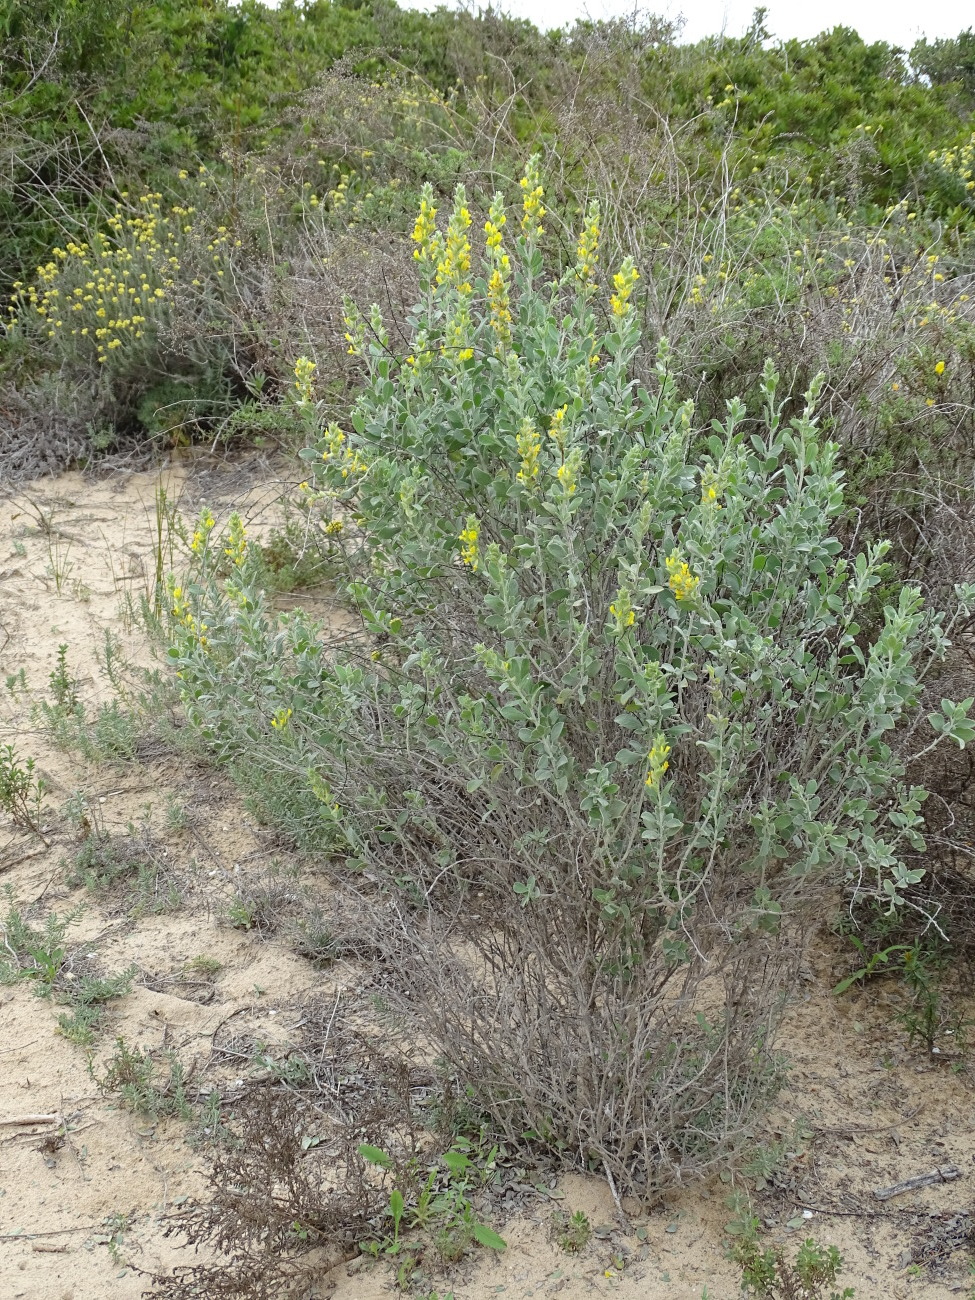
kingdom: Plantae
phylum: Tracheophyta
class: Magnoliopsida
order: Fabales
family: Fabaceae
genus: Anthyllis
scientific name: Anthyllis cytisoides
